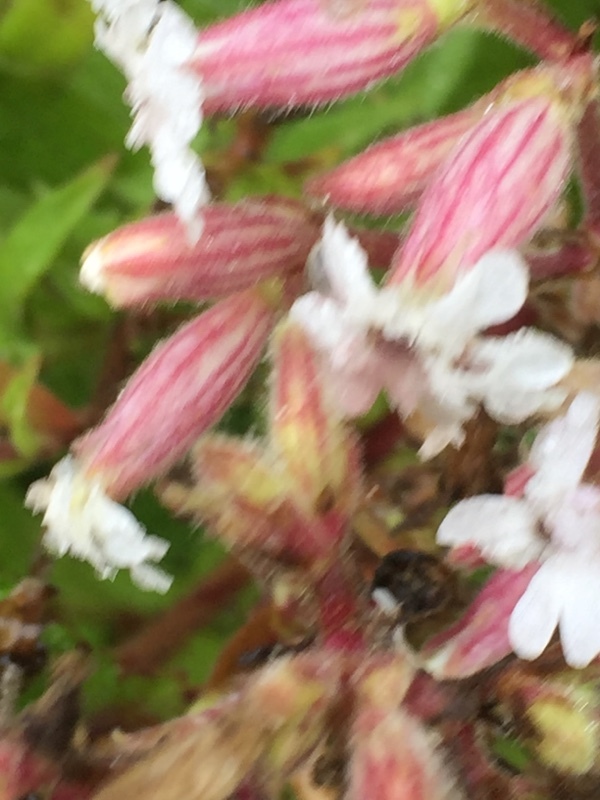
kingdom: Plantae
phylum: Tracheophyta
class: Magnoliopsida
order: Caryophyllales
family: Caryophyllaceae
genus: Silene
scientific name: Silene latifolia
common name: White campion
